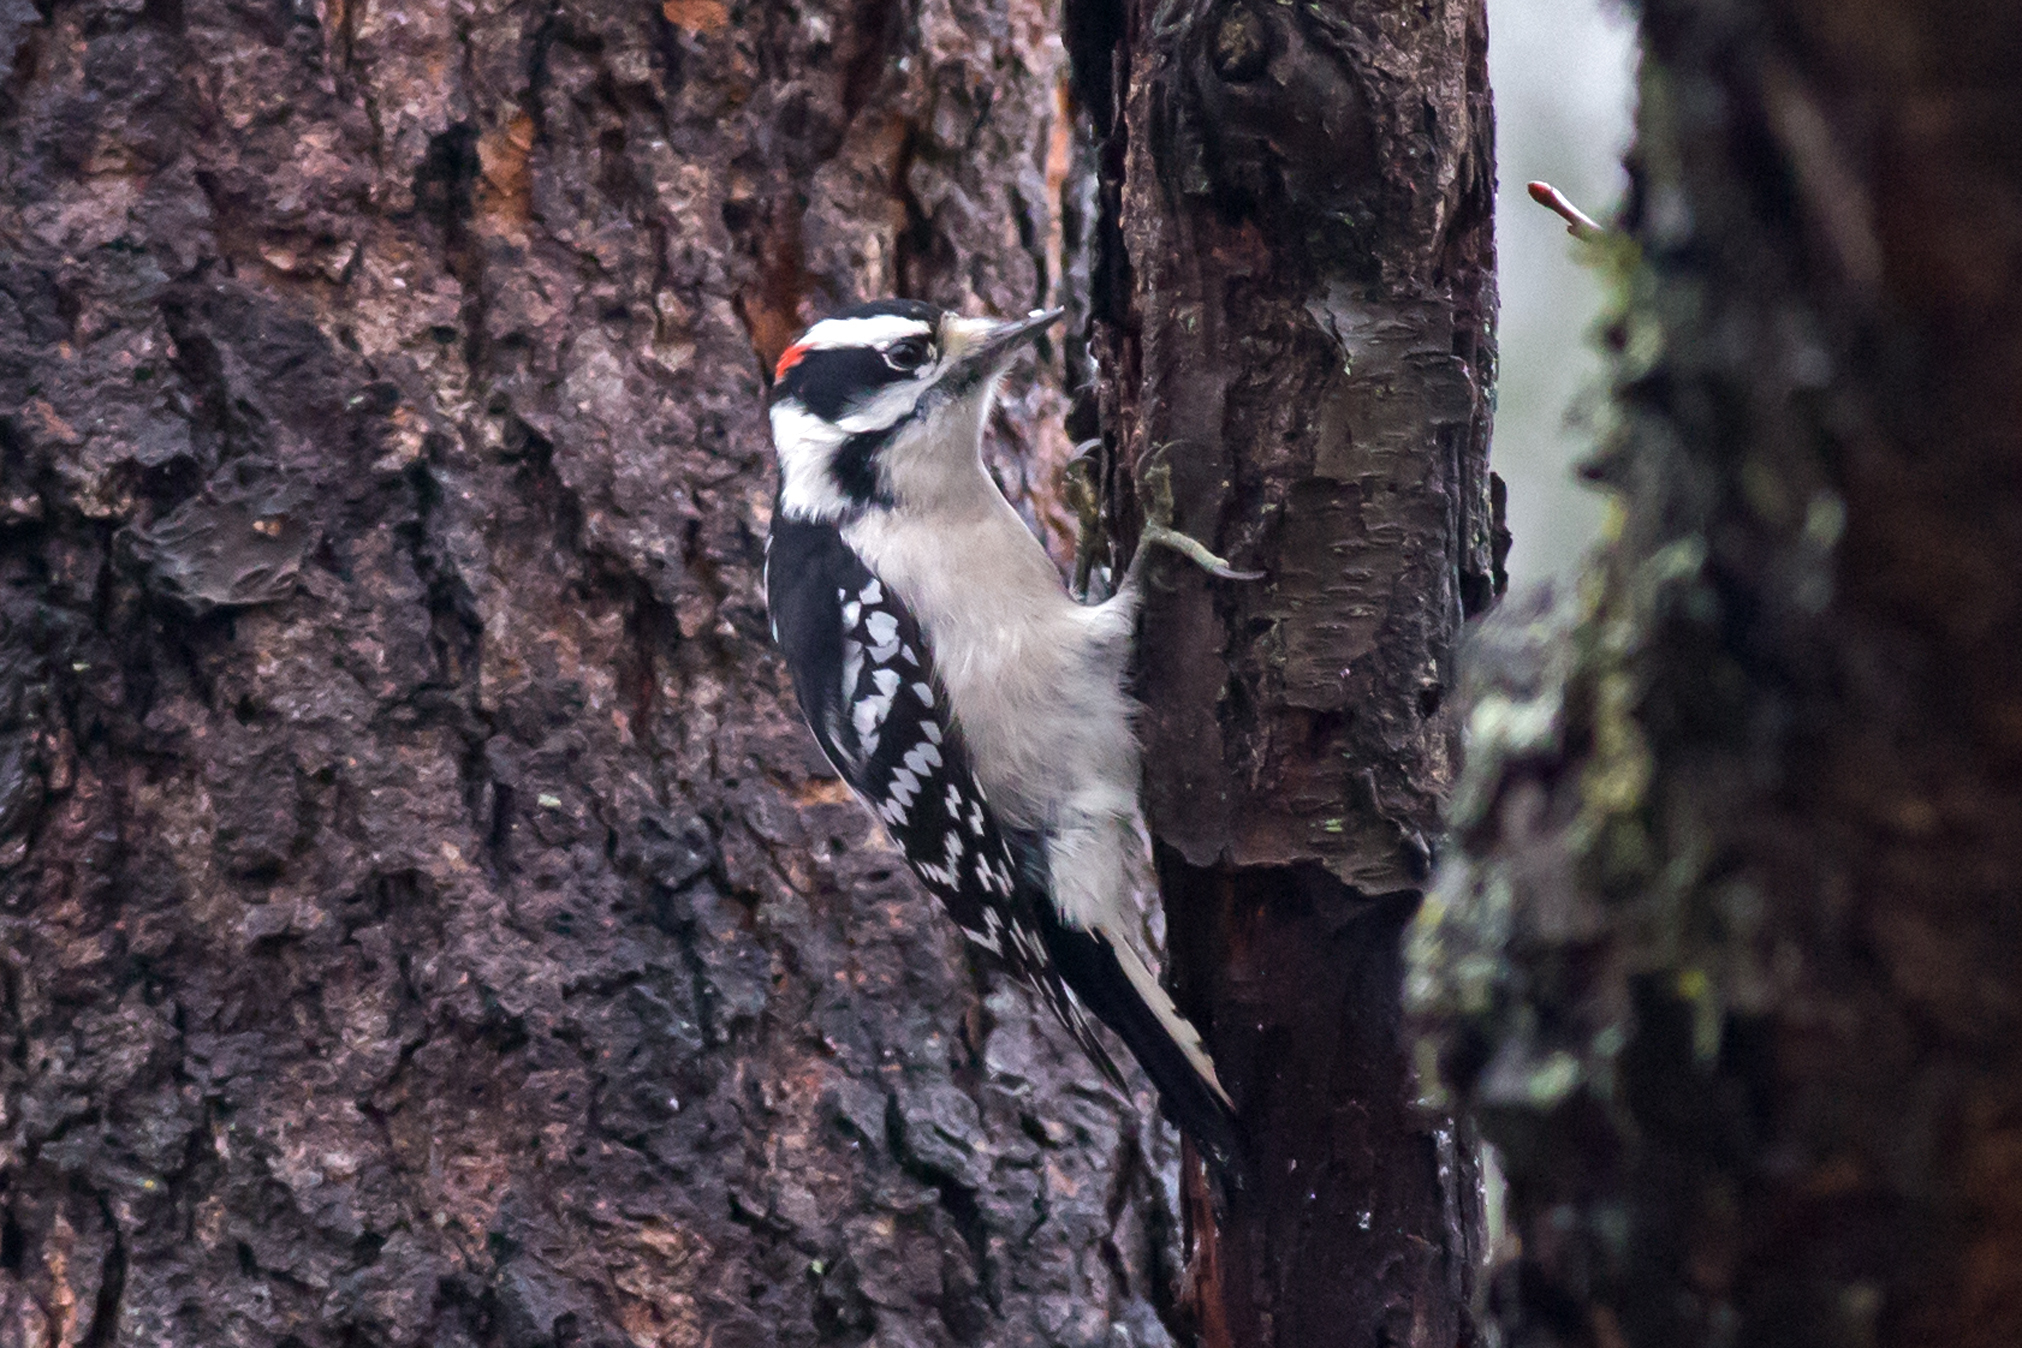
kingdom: Animalia
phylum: Chordata
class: Aves
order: Piciformes
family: Picidae
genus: Dryobates
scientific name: Dryobates pubescens
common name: Downy woodpecker
